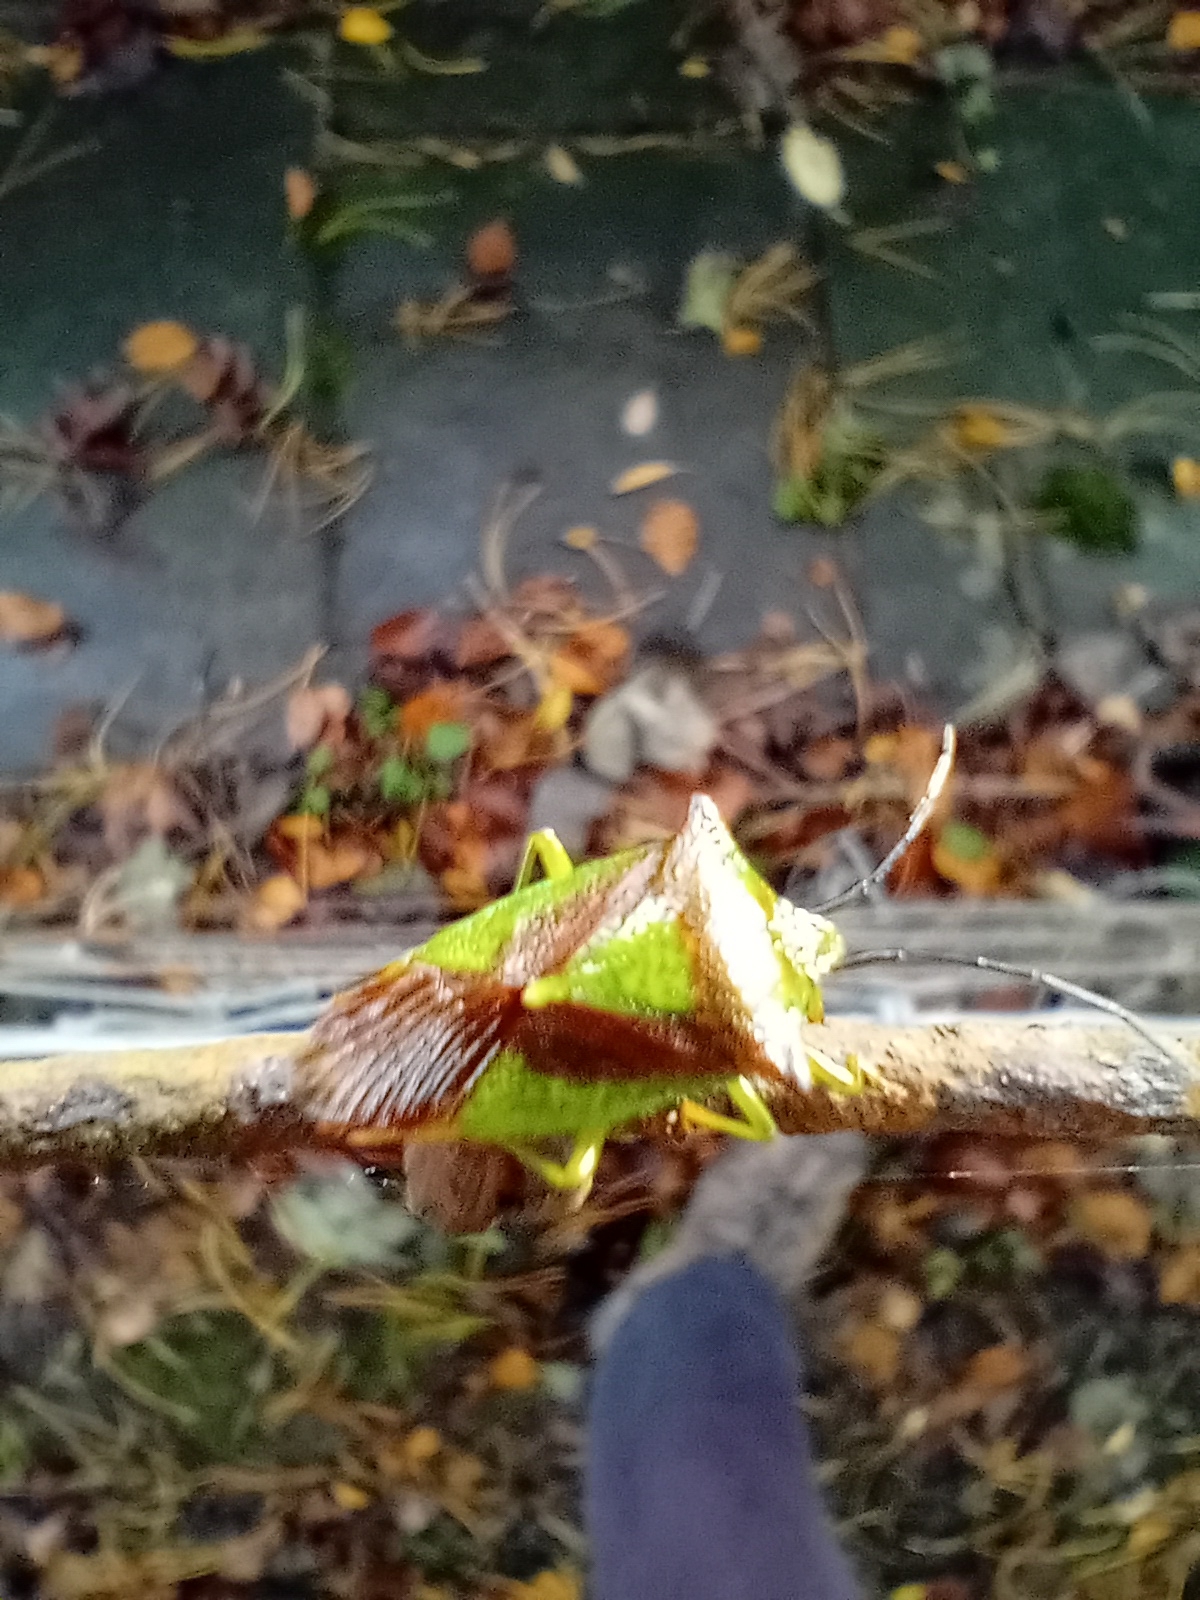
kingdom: Animalia
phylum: Arthropoda
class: Insecta
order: Hemiptera
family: Acanthosomatidae
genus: Acanthosoma
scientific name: Acanthosoma haemorrhoidale
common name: Hawthorn shieldbug
